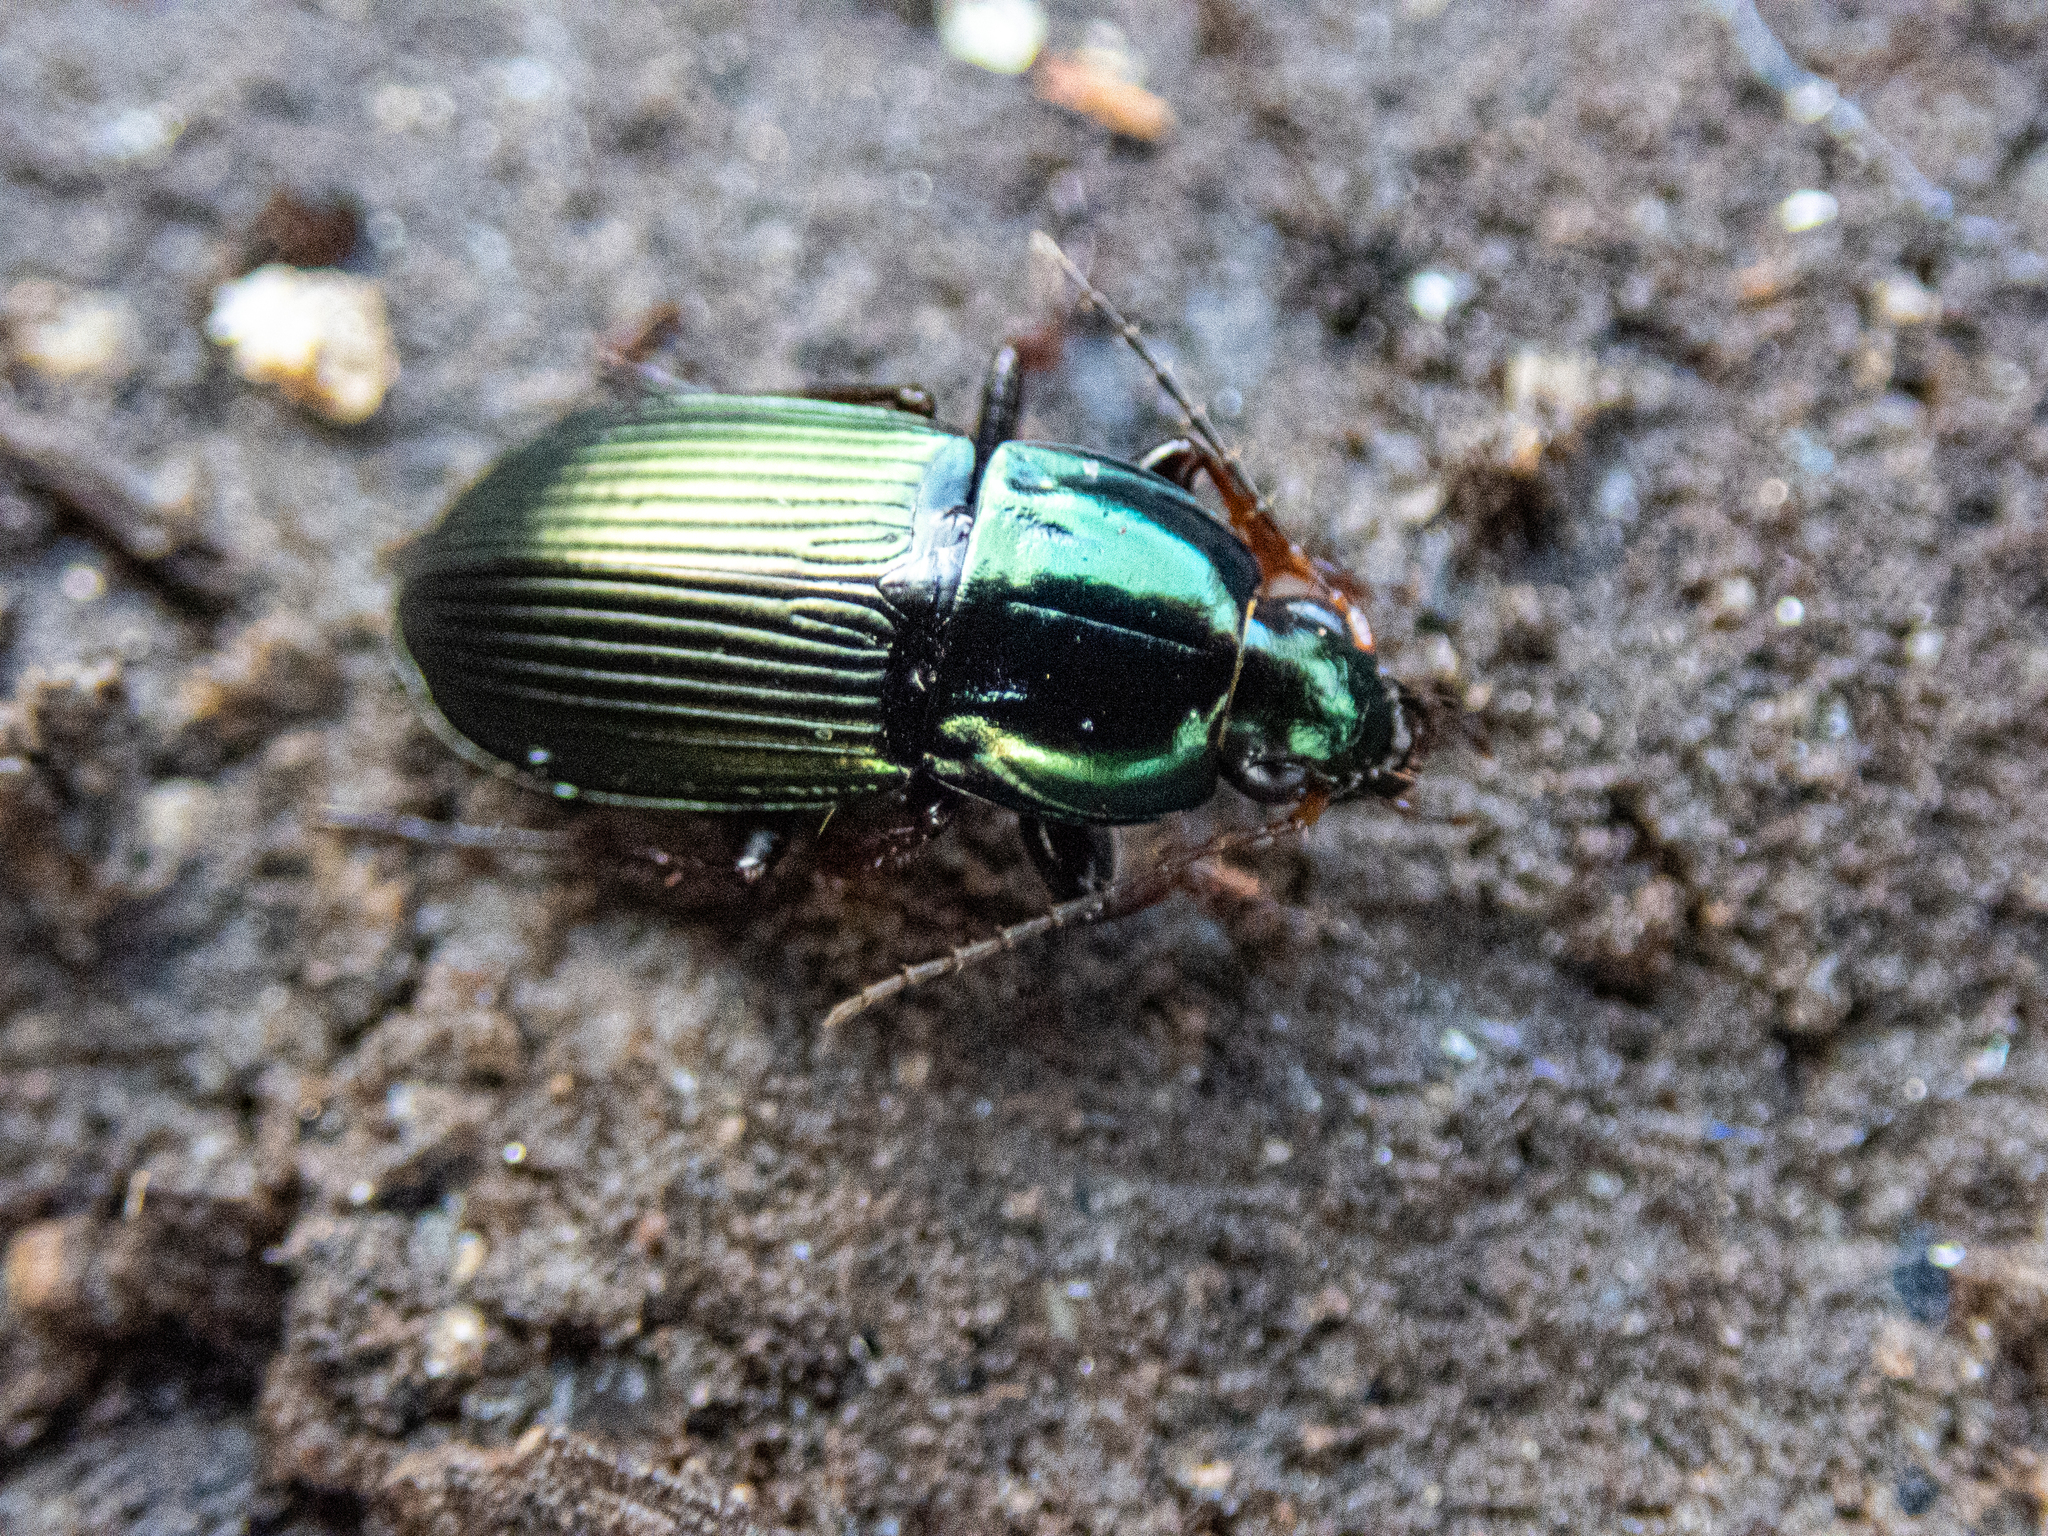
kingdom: Animalia
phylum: Arthropoda
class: Insecta
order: Coleoptera
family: Carabidae
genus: Poecilus
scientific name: Poecilus lucublandus
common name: Woodland ground beetle
